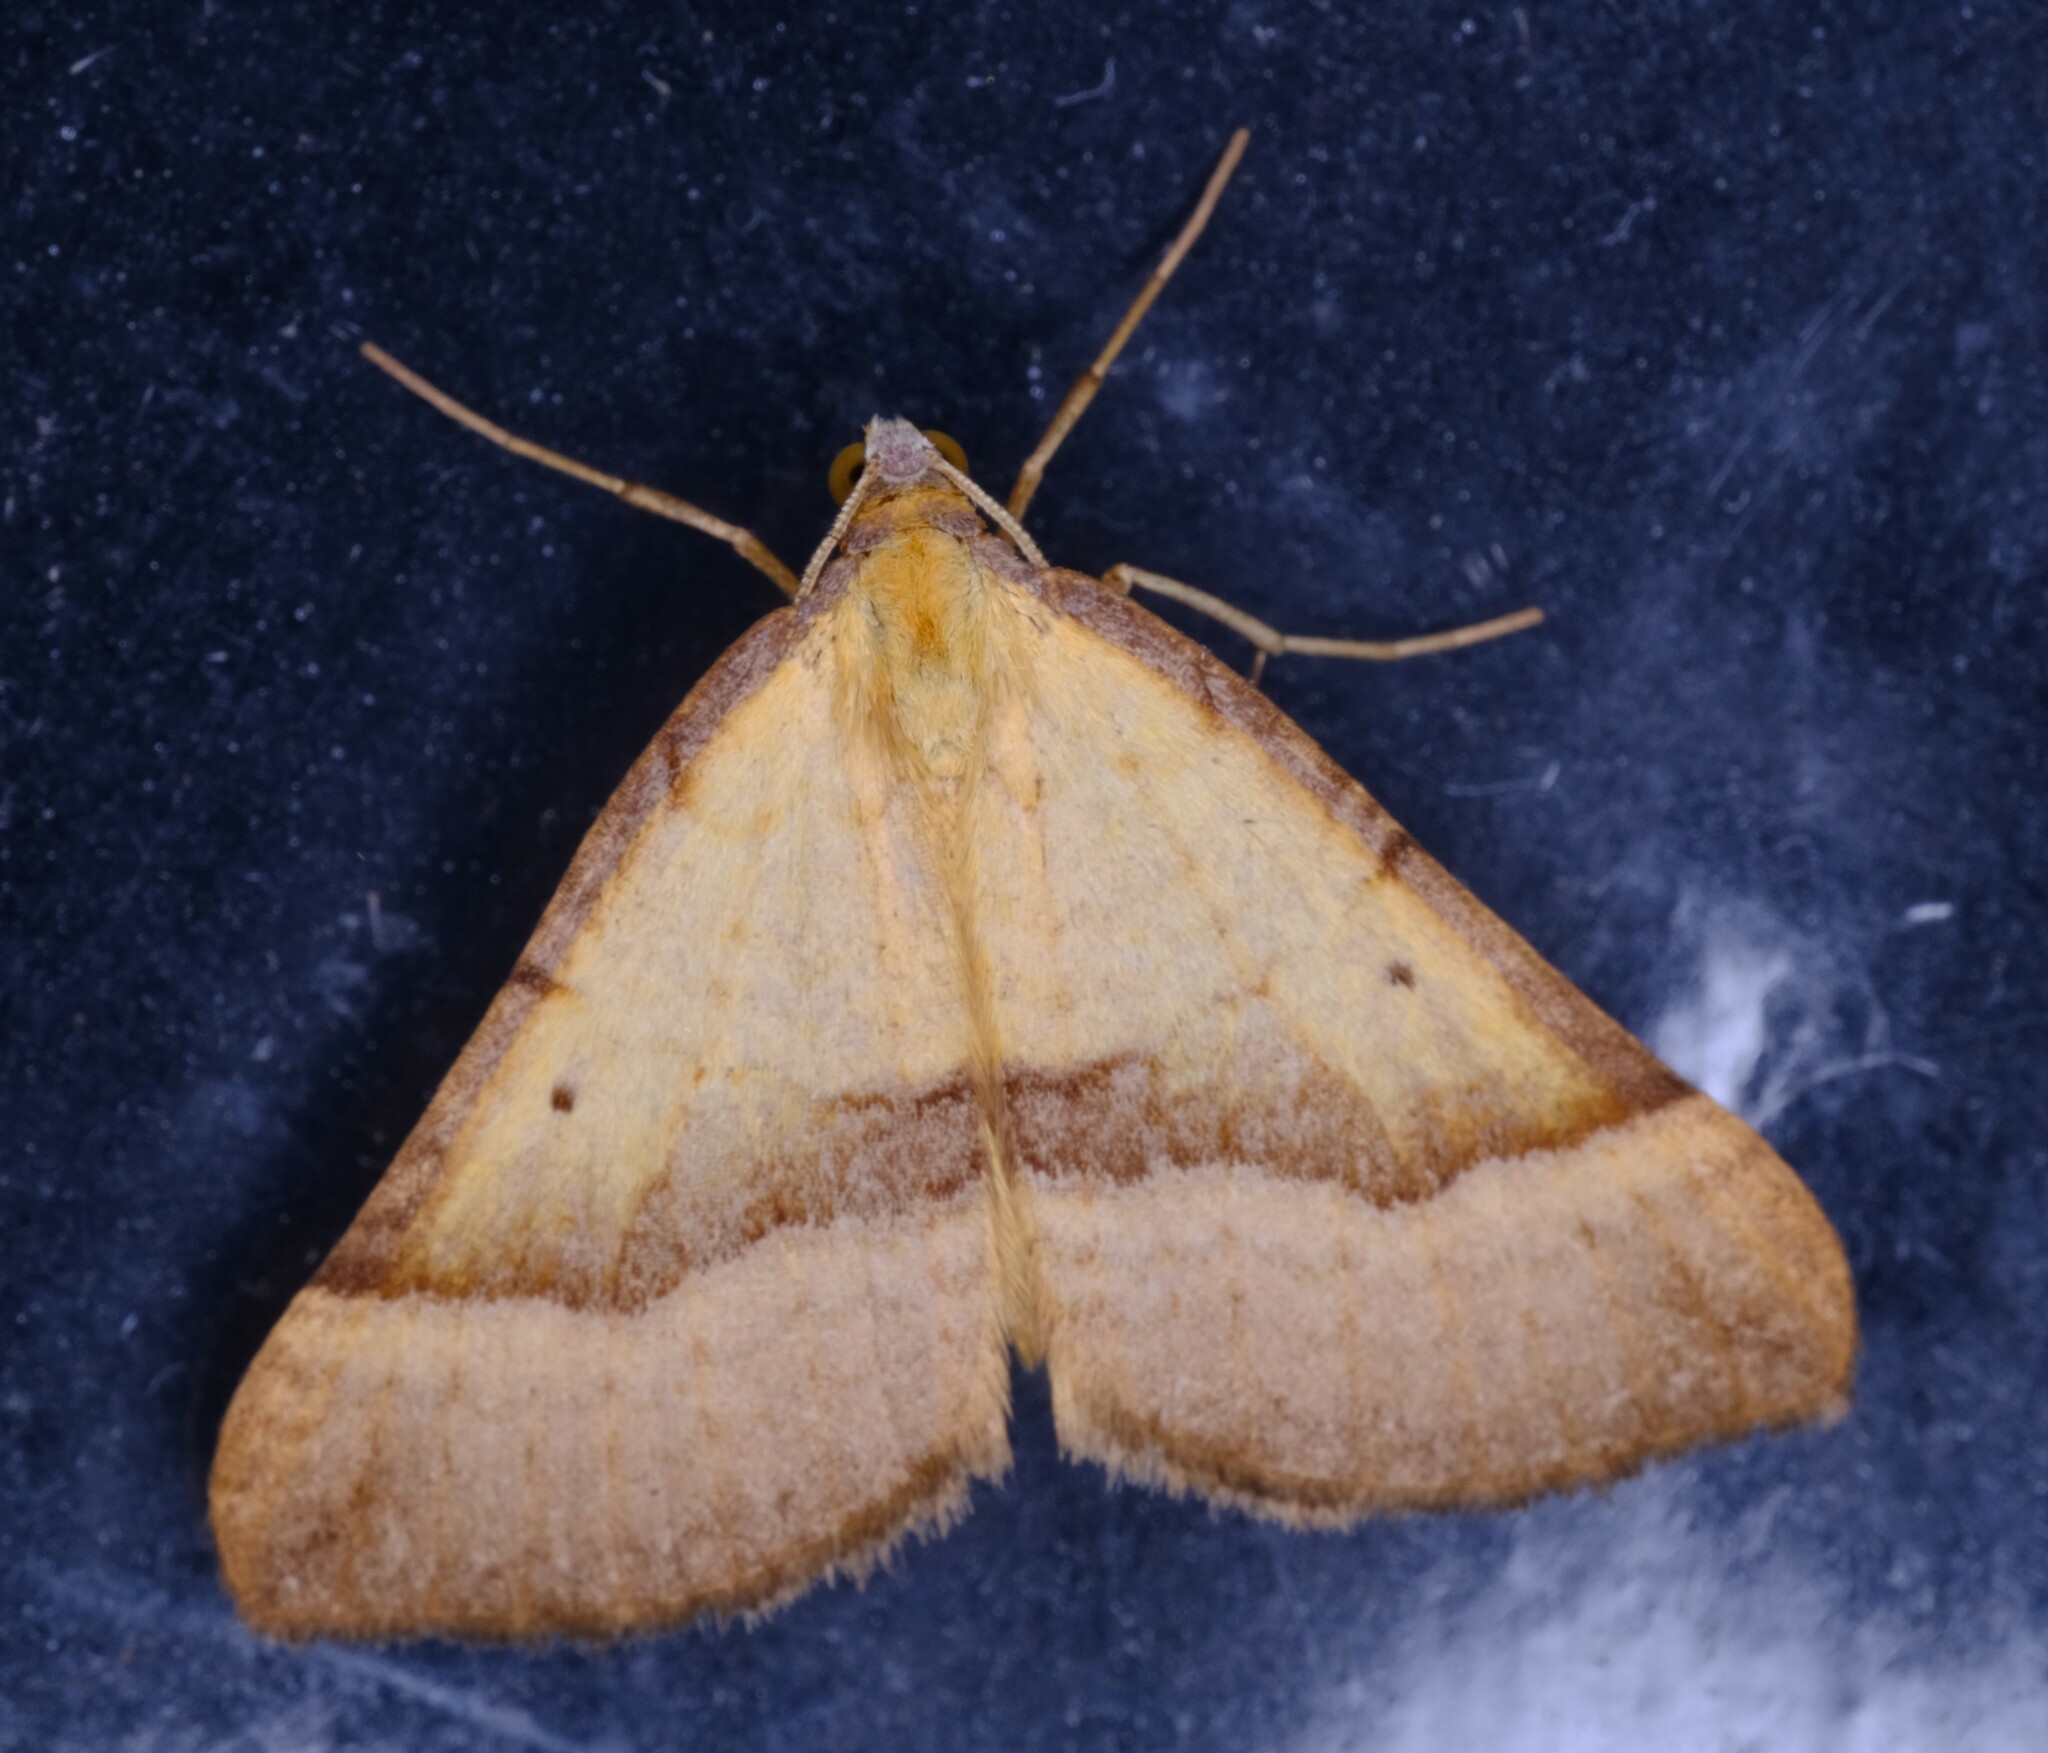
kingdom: Animalia
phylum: Arthropoda
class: Insecta
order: Lepidoptera
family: Geometridae
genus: Anachloris
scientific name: Anachloris subochraria
